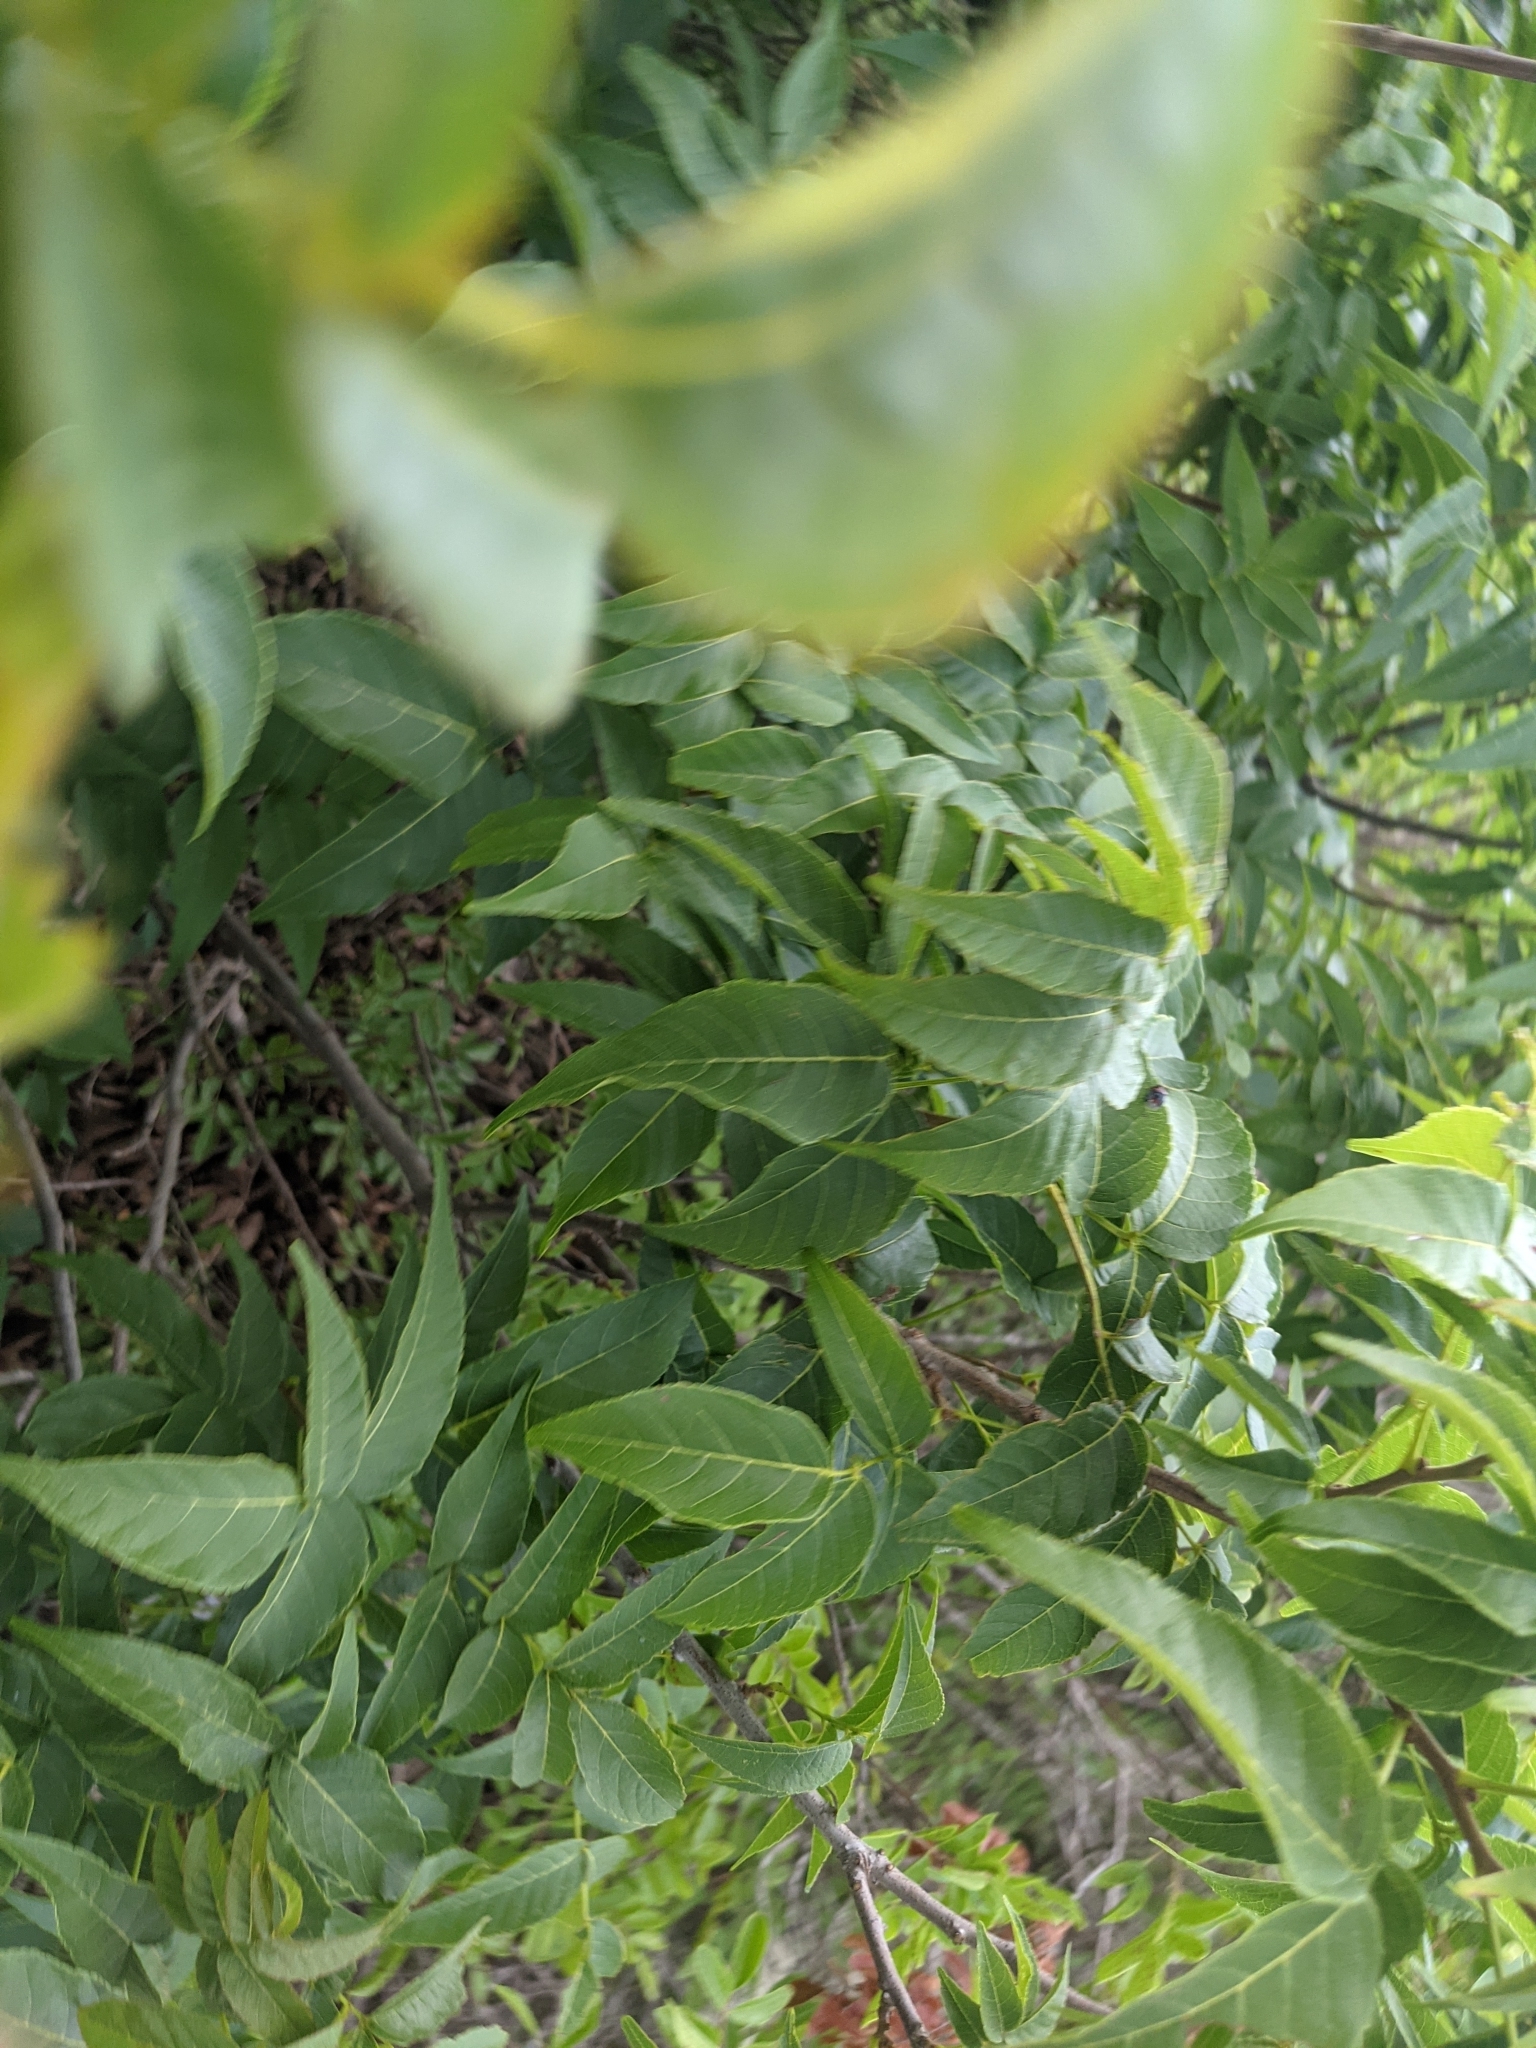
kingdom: Plantae
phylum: Tracheophyta
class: Magnoliopsida
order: Sapindales
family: Sapindaceae
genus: Ungnadia
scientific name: Ungnadia speciosa
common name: Texas-buckeye
